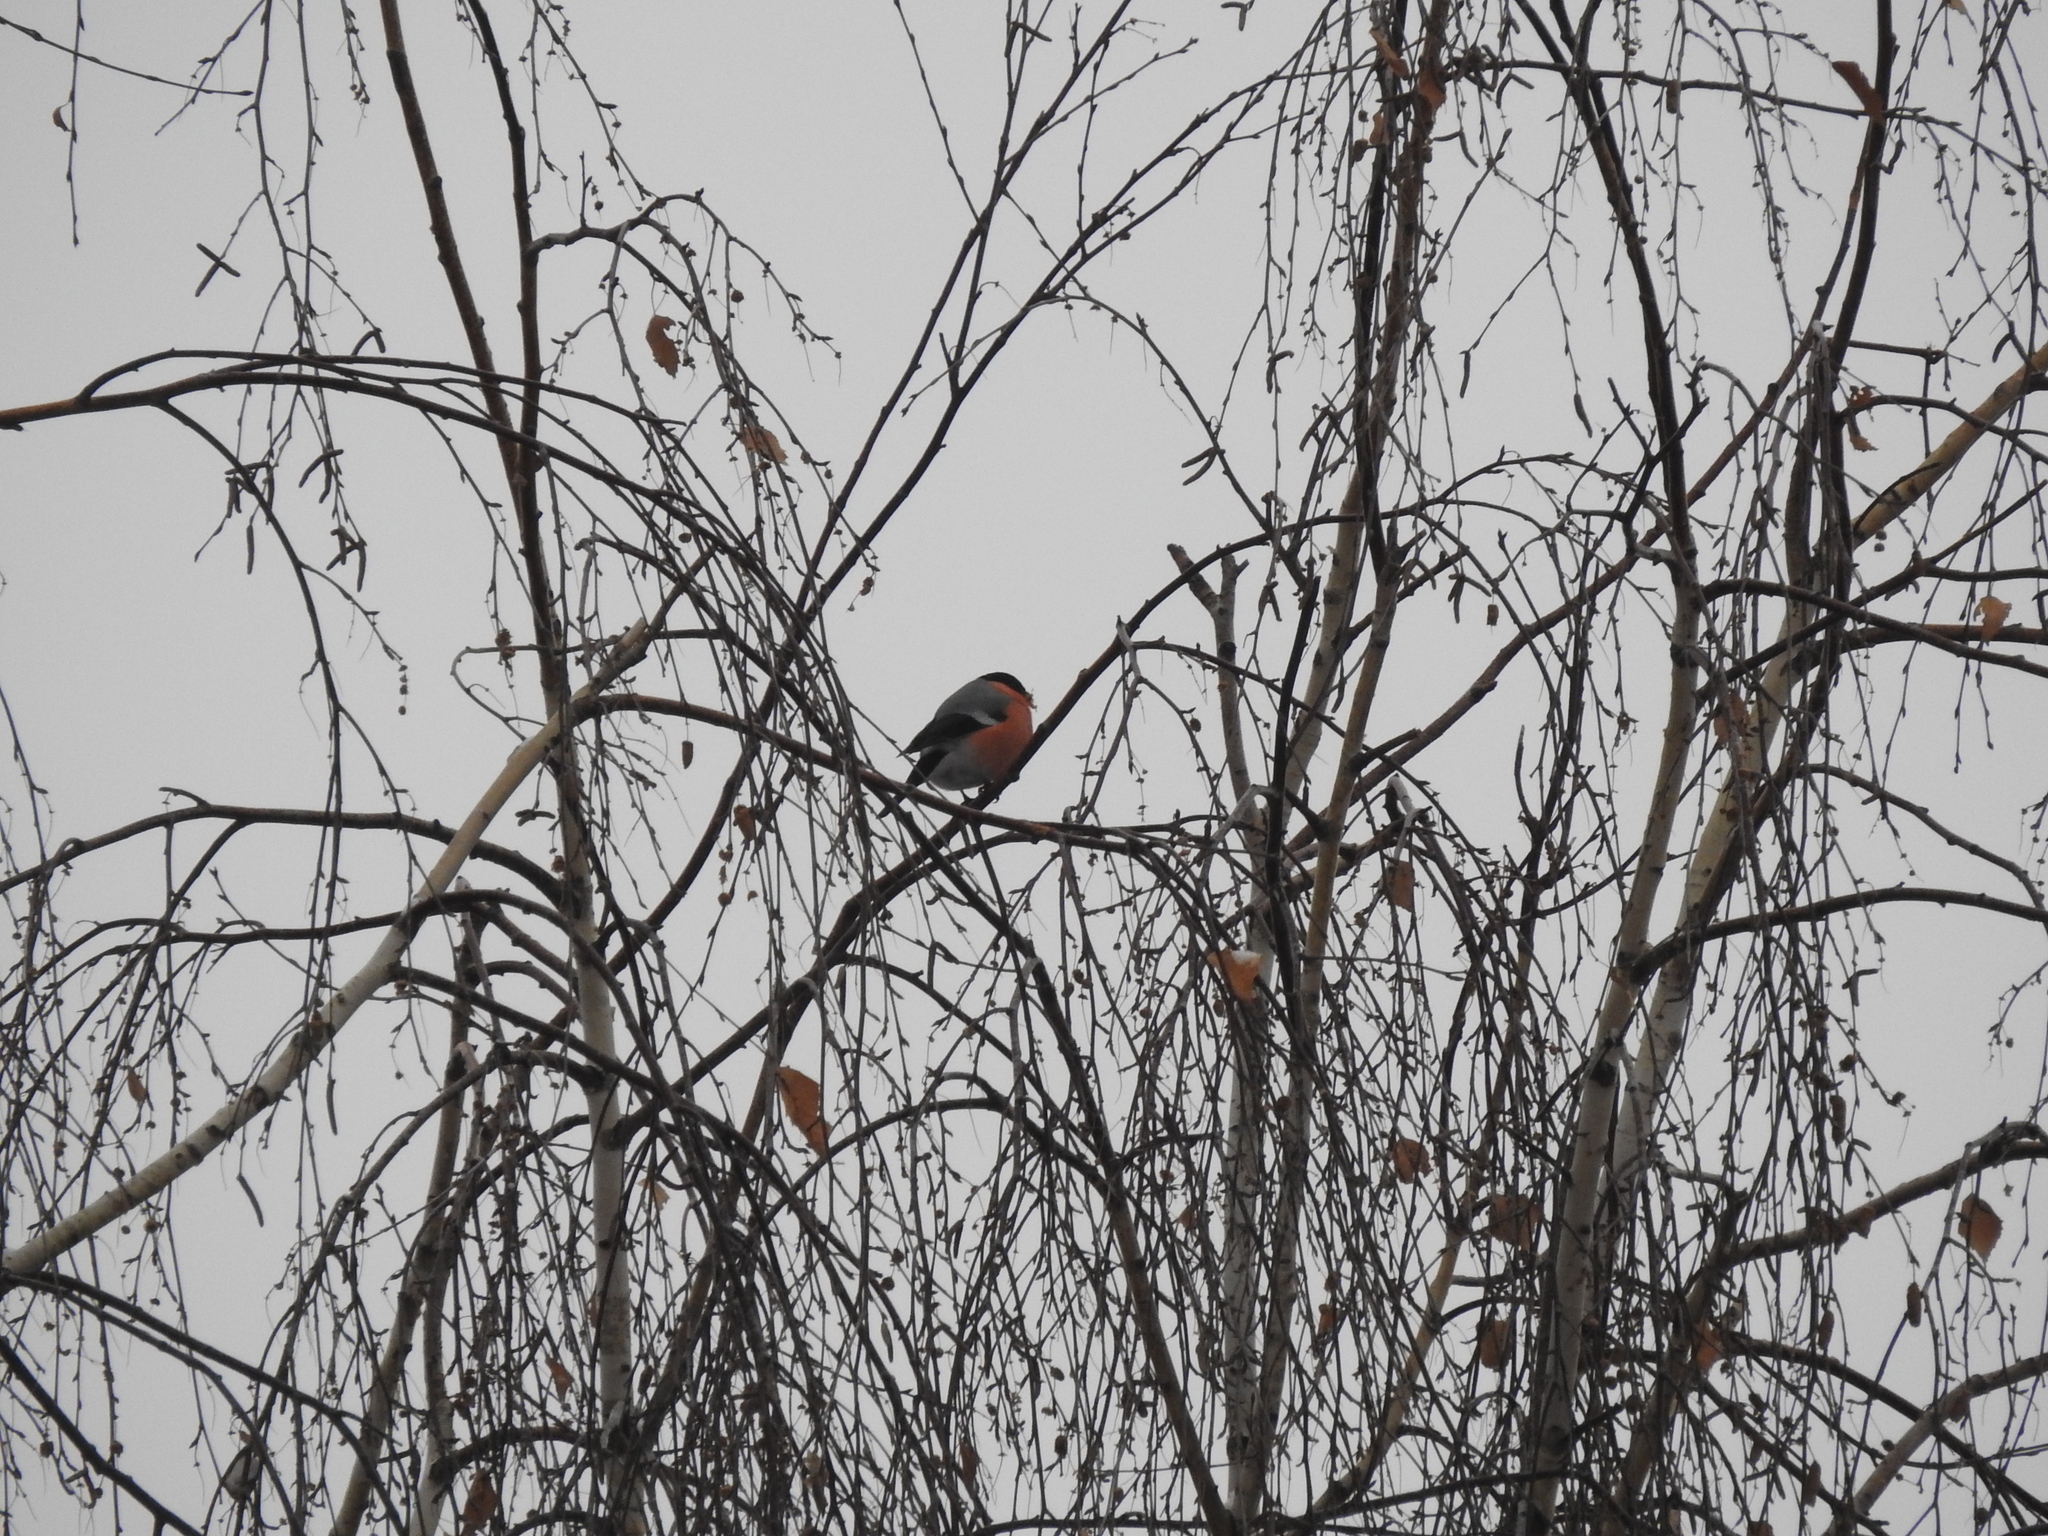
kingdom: Animalia
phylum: Chordata
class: Aves
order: Passeriformes
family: Fringillidae
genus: Pyrrhula
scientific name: Pyrrhula pyrrhula
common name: Eurasian bullfinch
